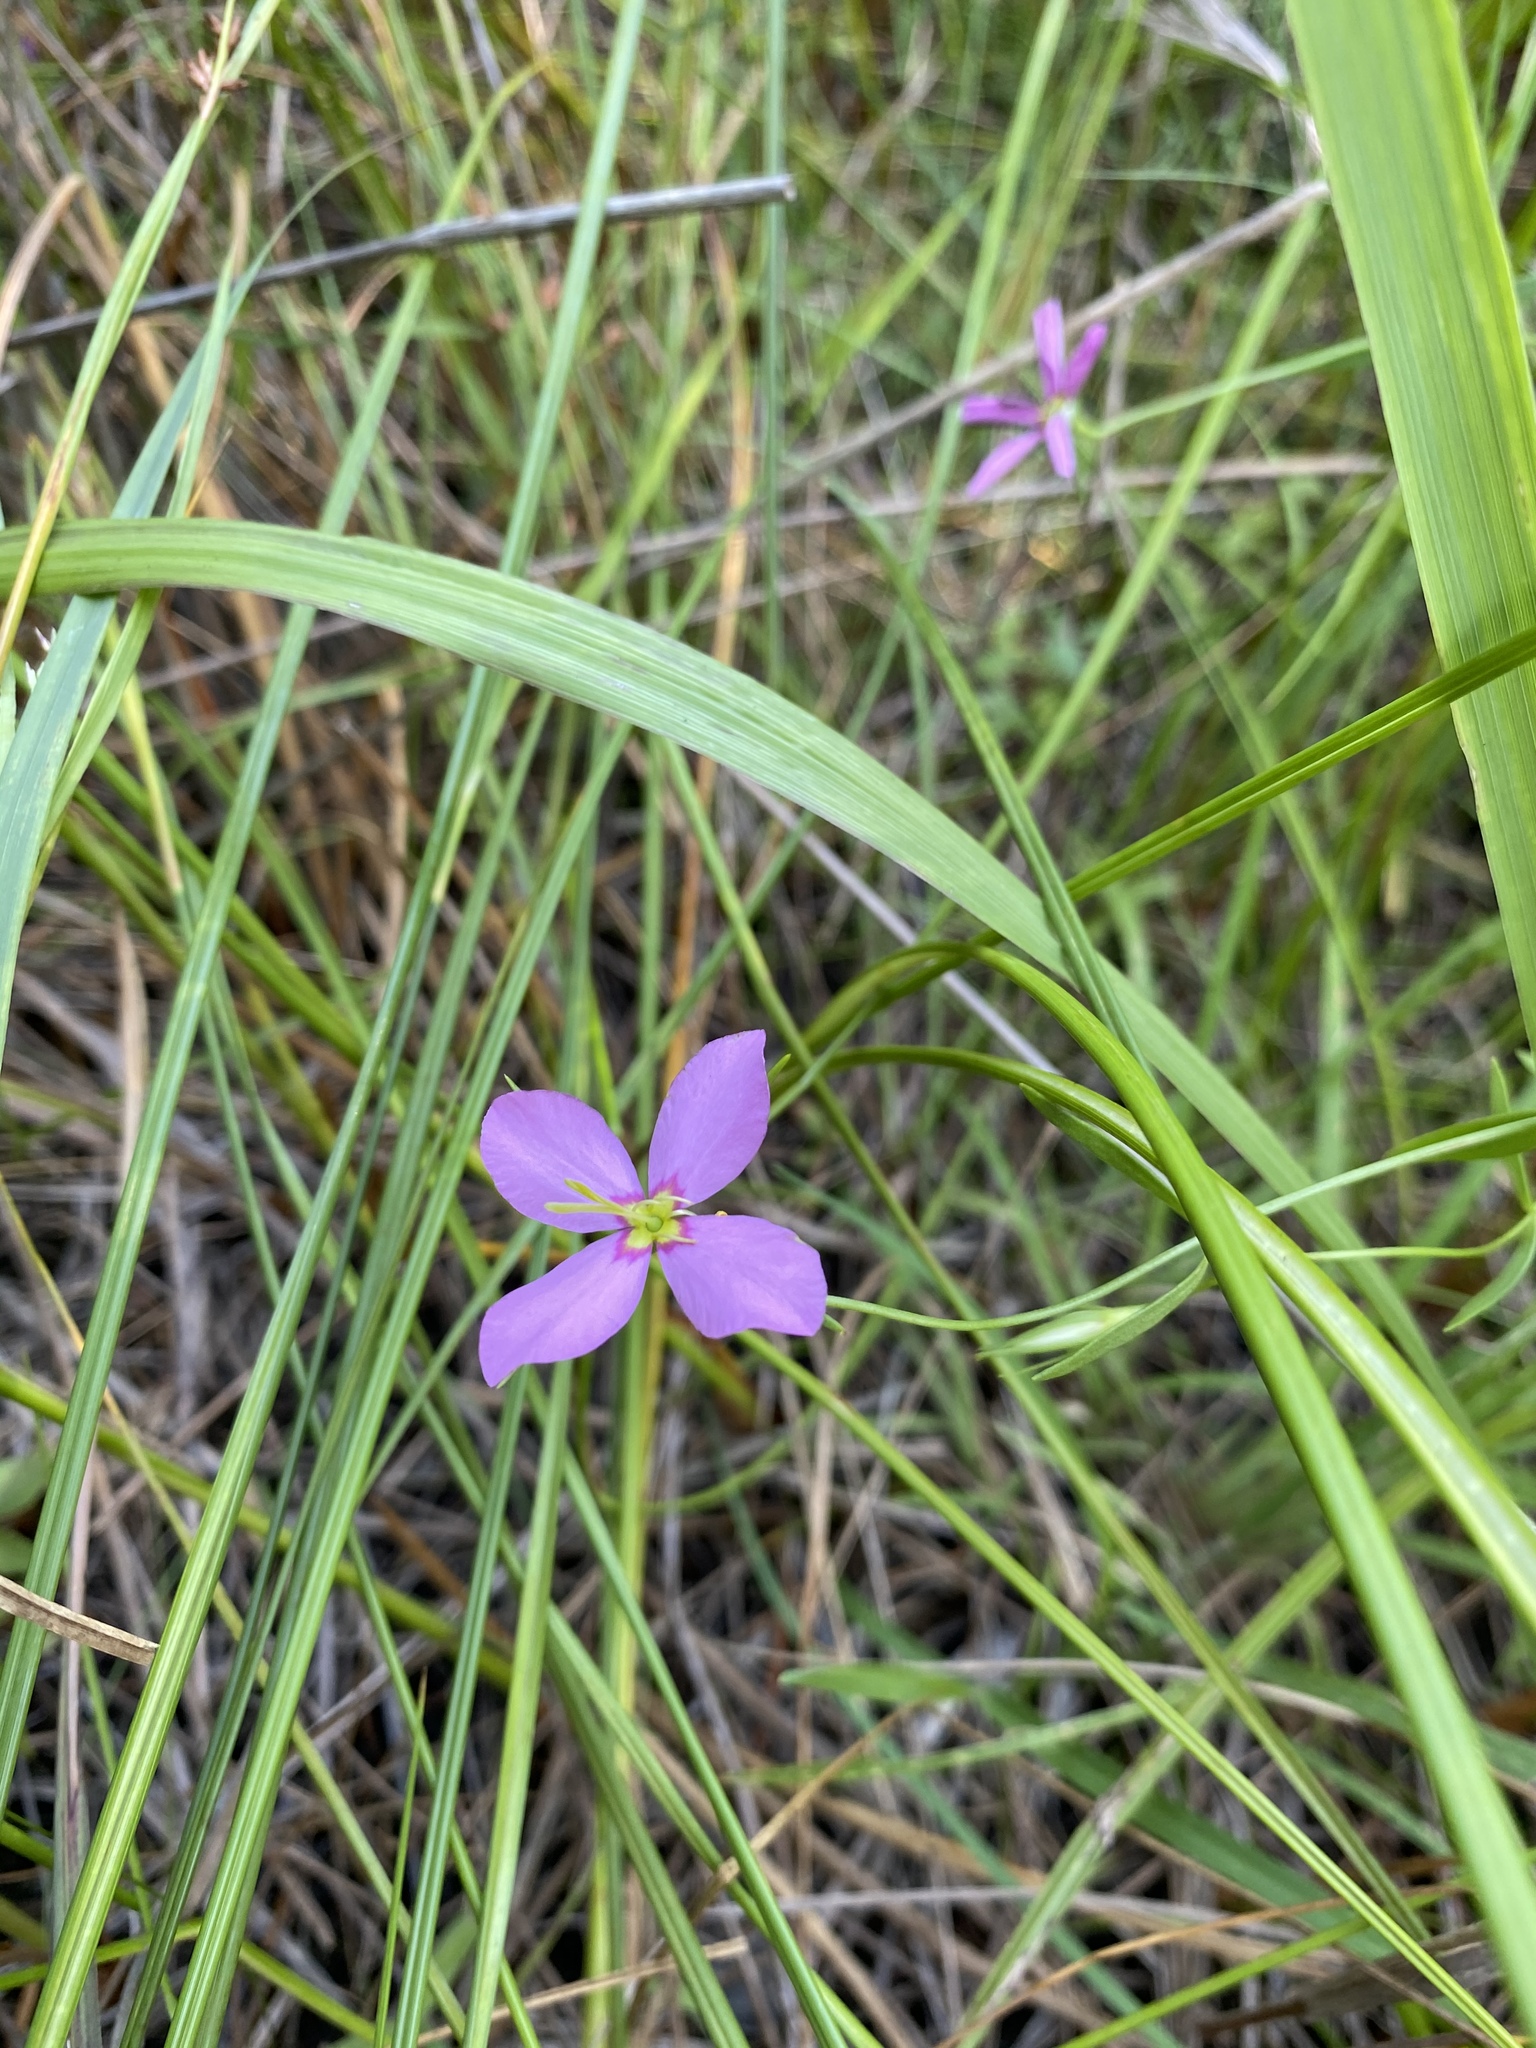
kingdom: Plantae
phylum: Tracheophyta
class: Magnoliopsida
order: Gentianales
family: Gentianaceae
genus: Sabatia
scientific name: Sabatia campanulata
